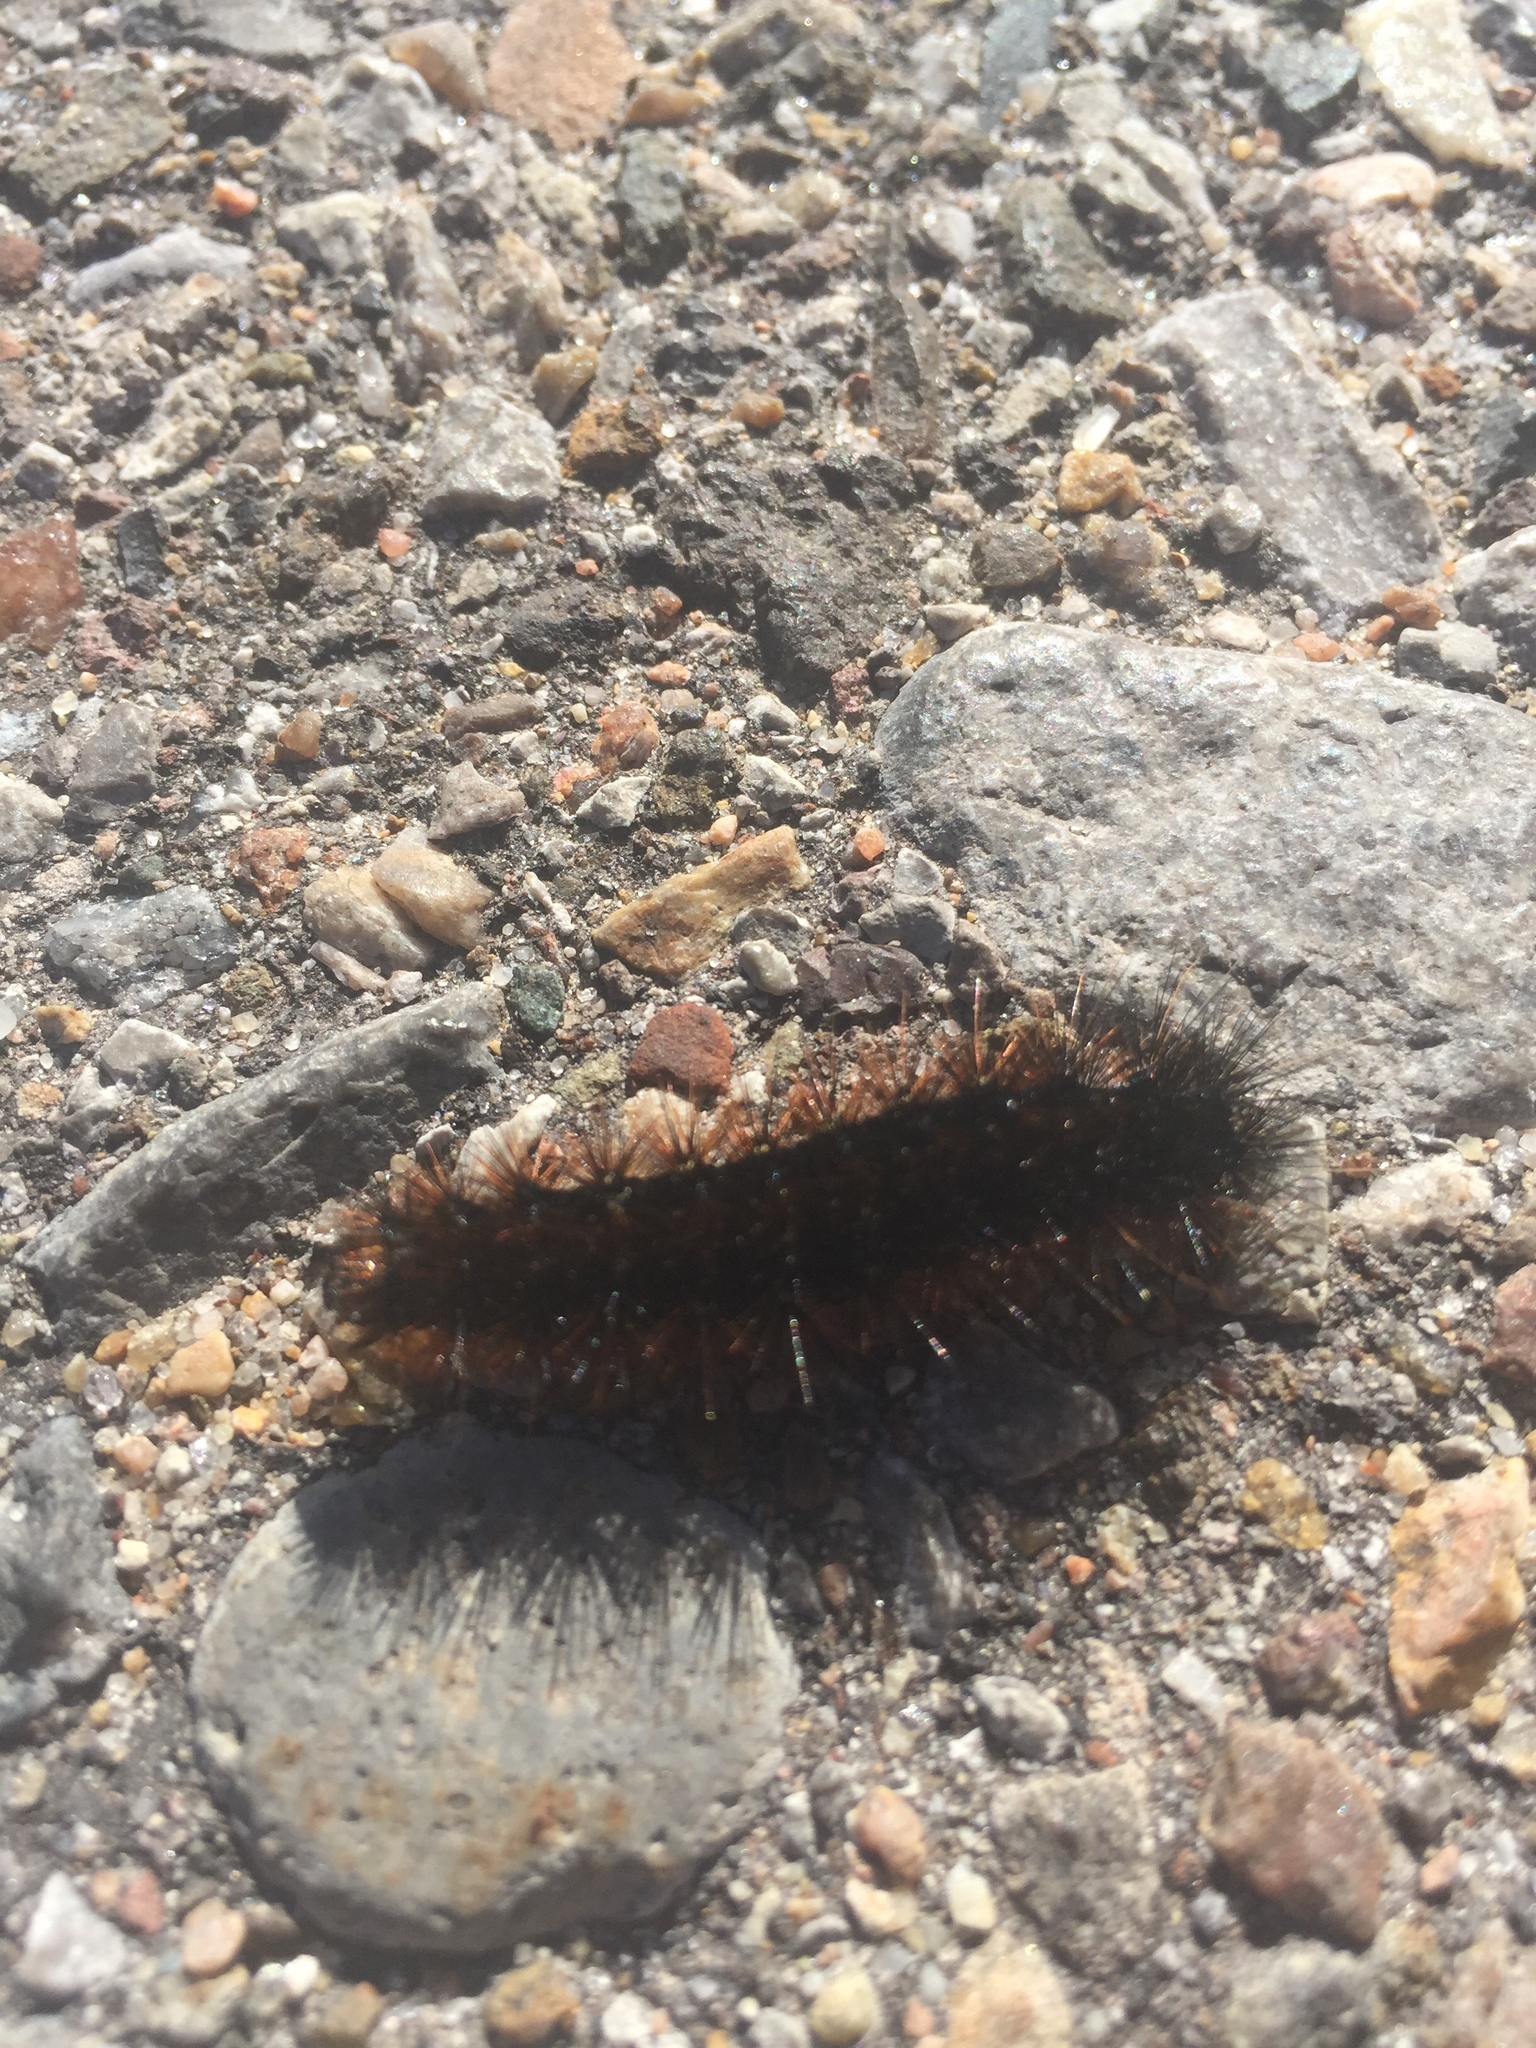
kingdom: Animalia
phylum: Arthropoda
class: Insecta
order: Lepidoptera
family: Erebidae
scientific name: Erebidae
